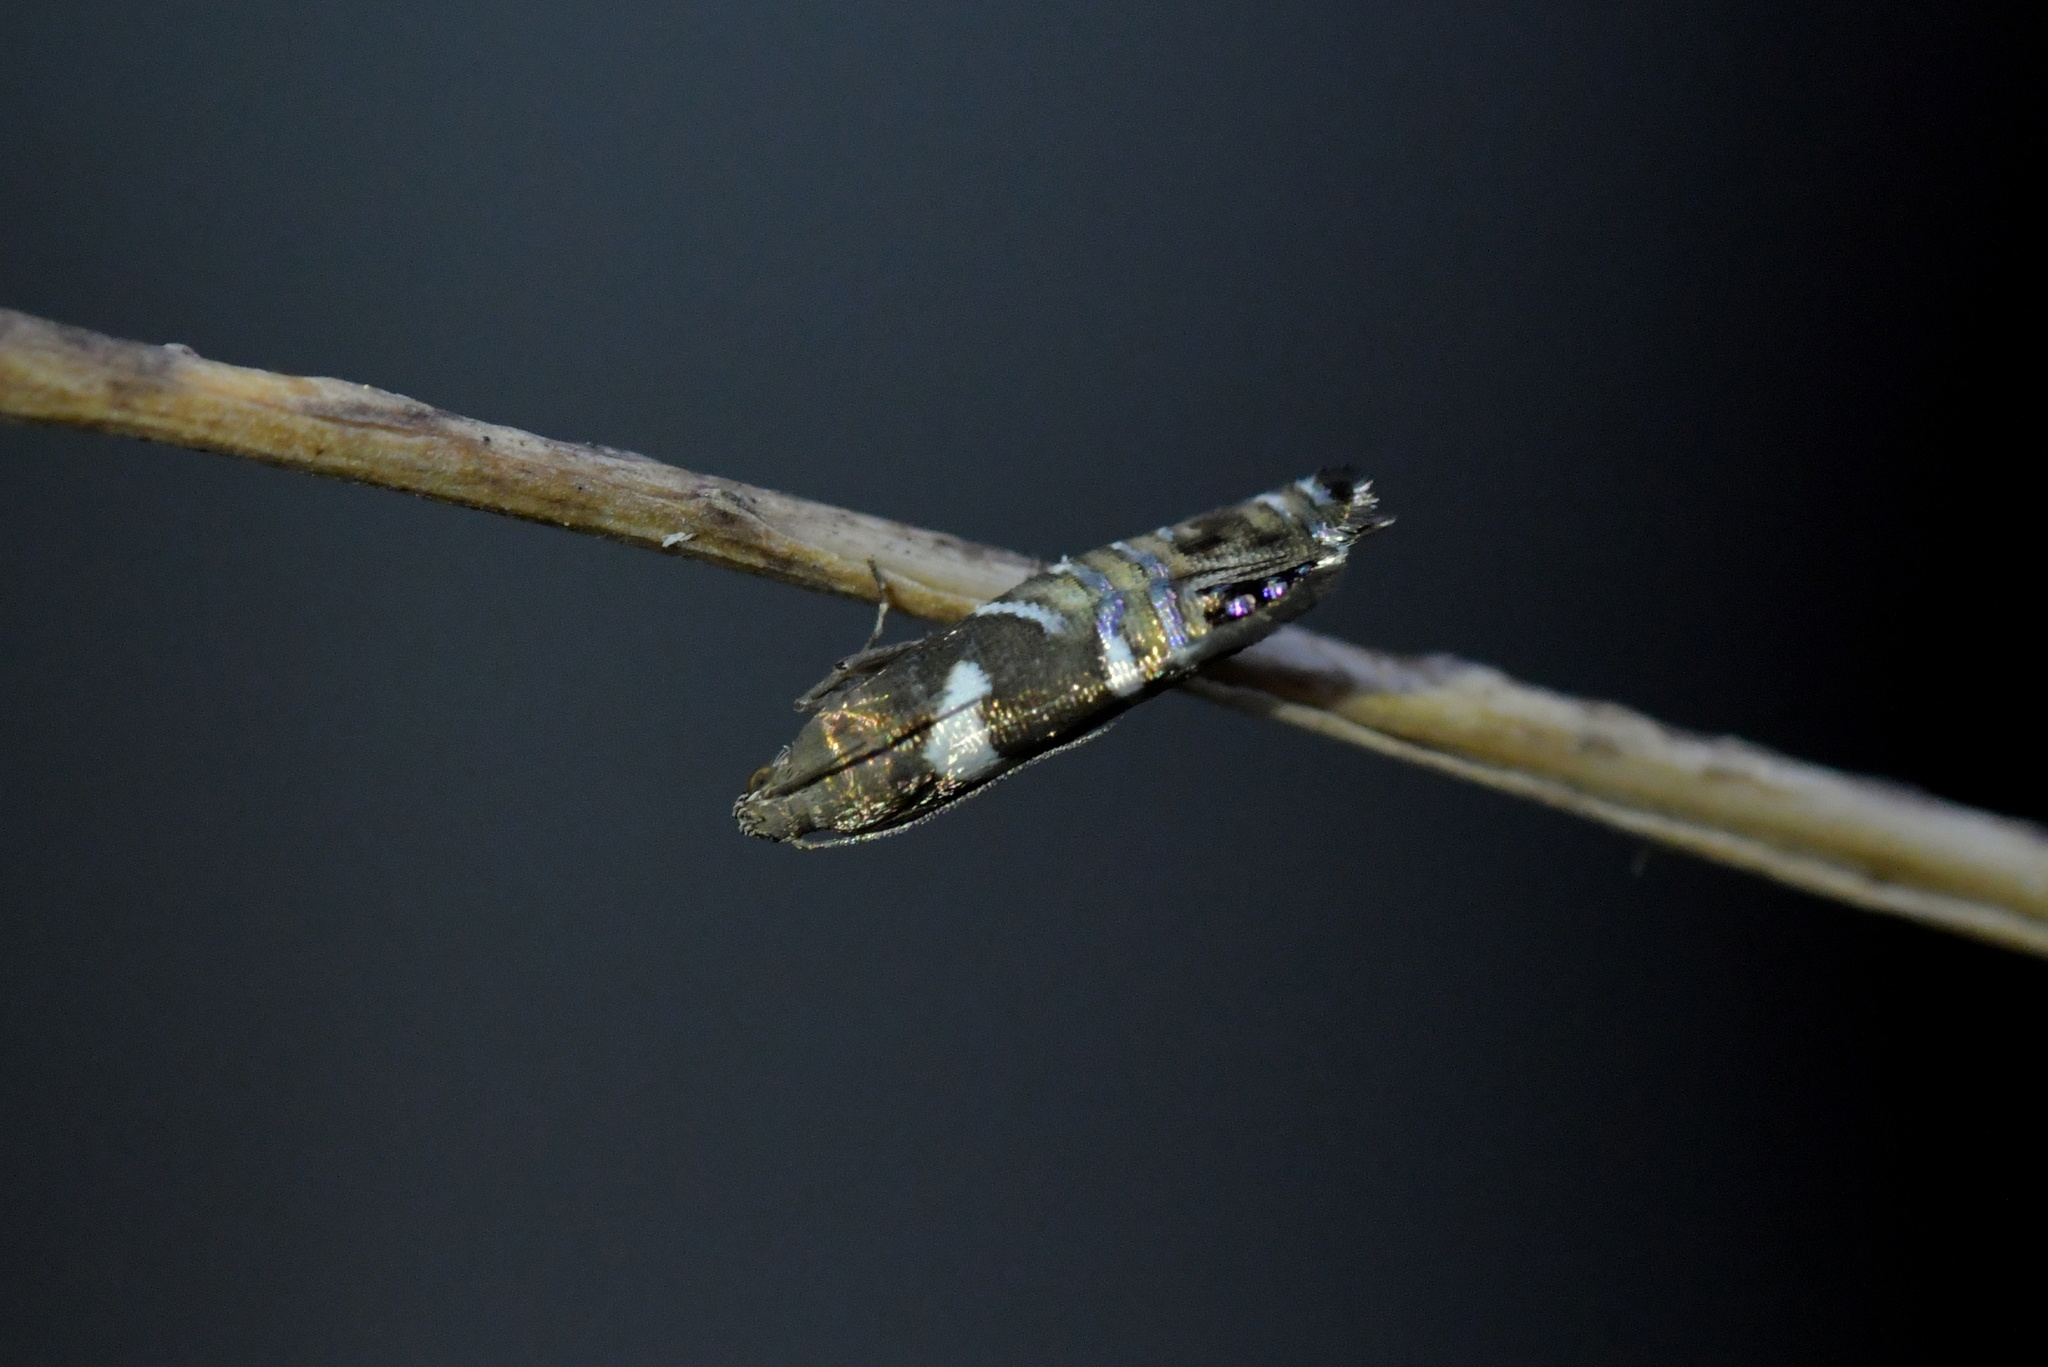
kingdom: Animalia
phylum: Arthropoda
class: Insecta
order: Lepidoptera
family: Glyphipterigidae
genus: Glyphipterix
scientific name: Glyphipterix zelota
